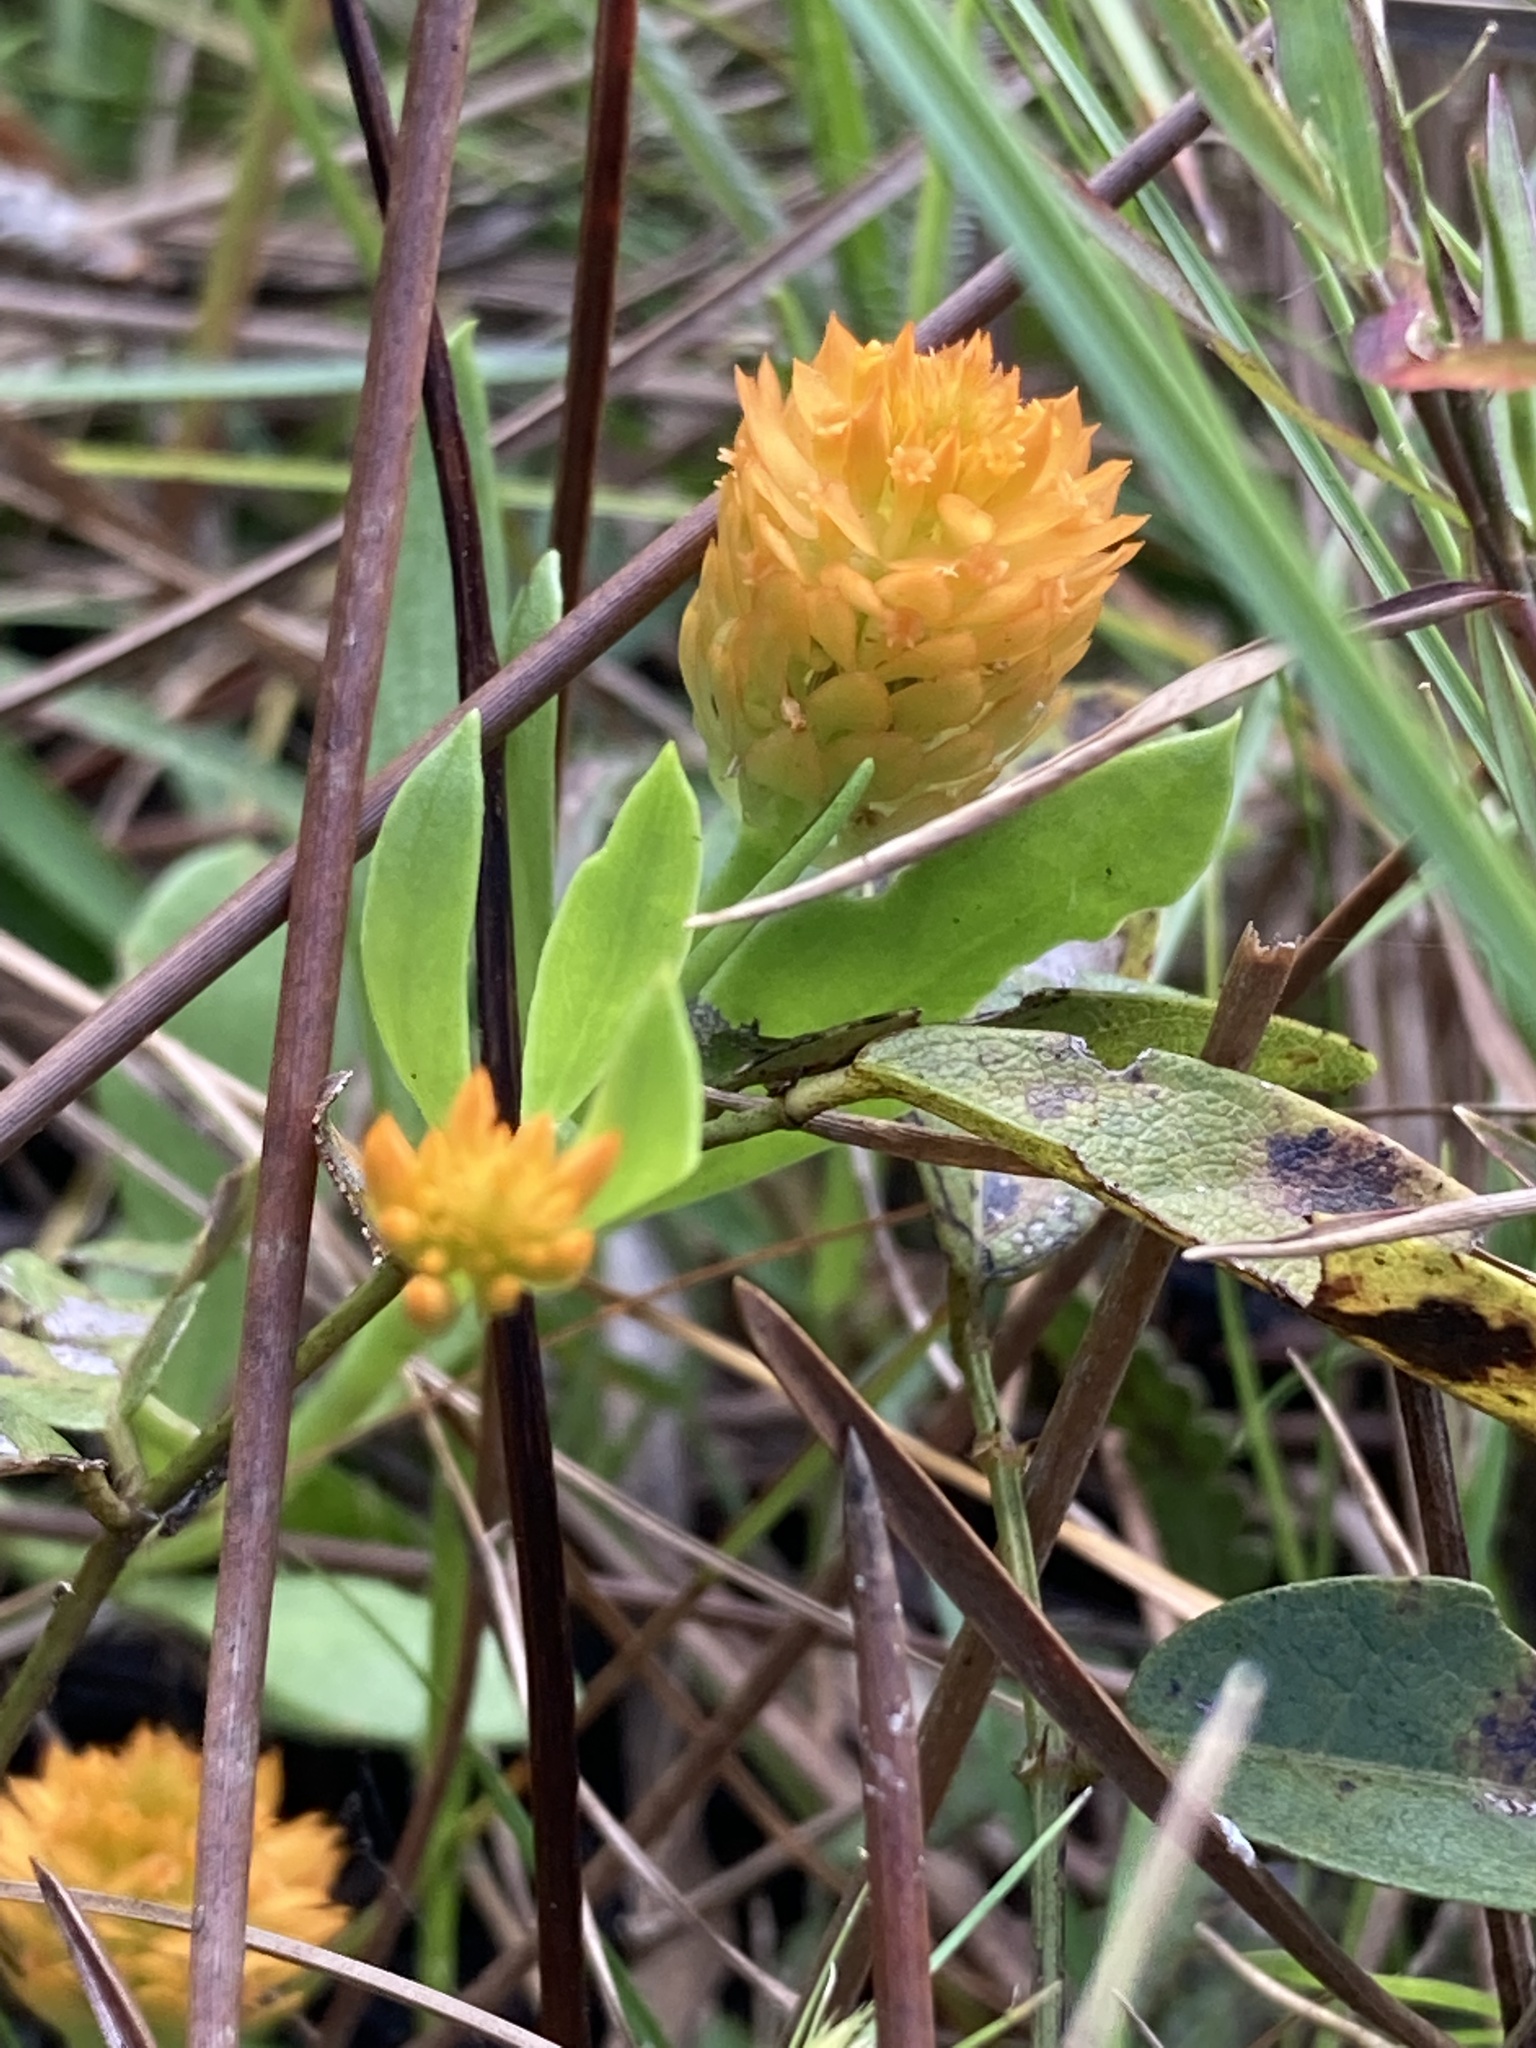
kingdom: Plantae
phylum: Tracheophyta
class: Magnoliopsida
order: Fabales
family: Polygalaceae
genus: Polygala
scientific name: Polygala lutea
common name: Orange milkwort
